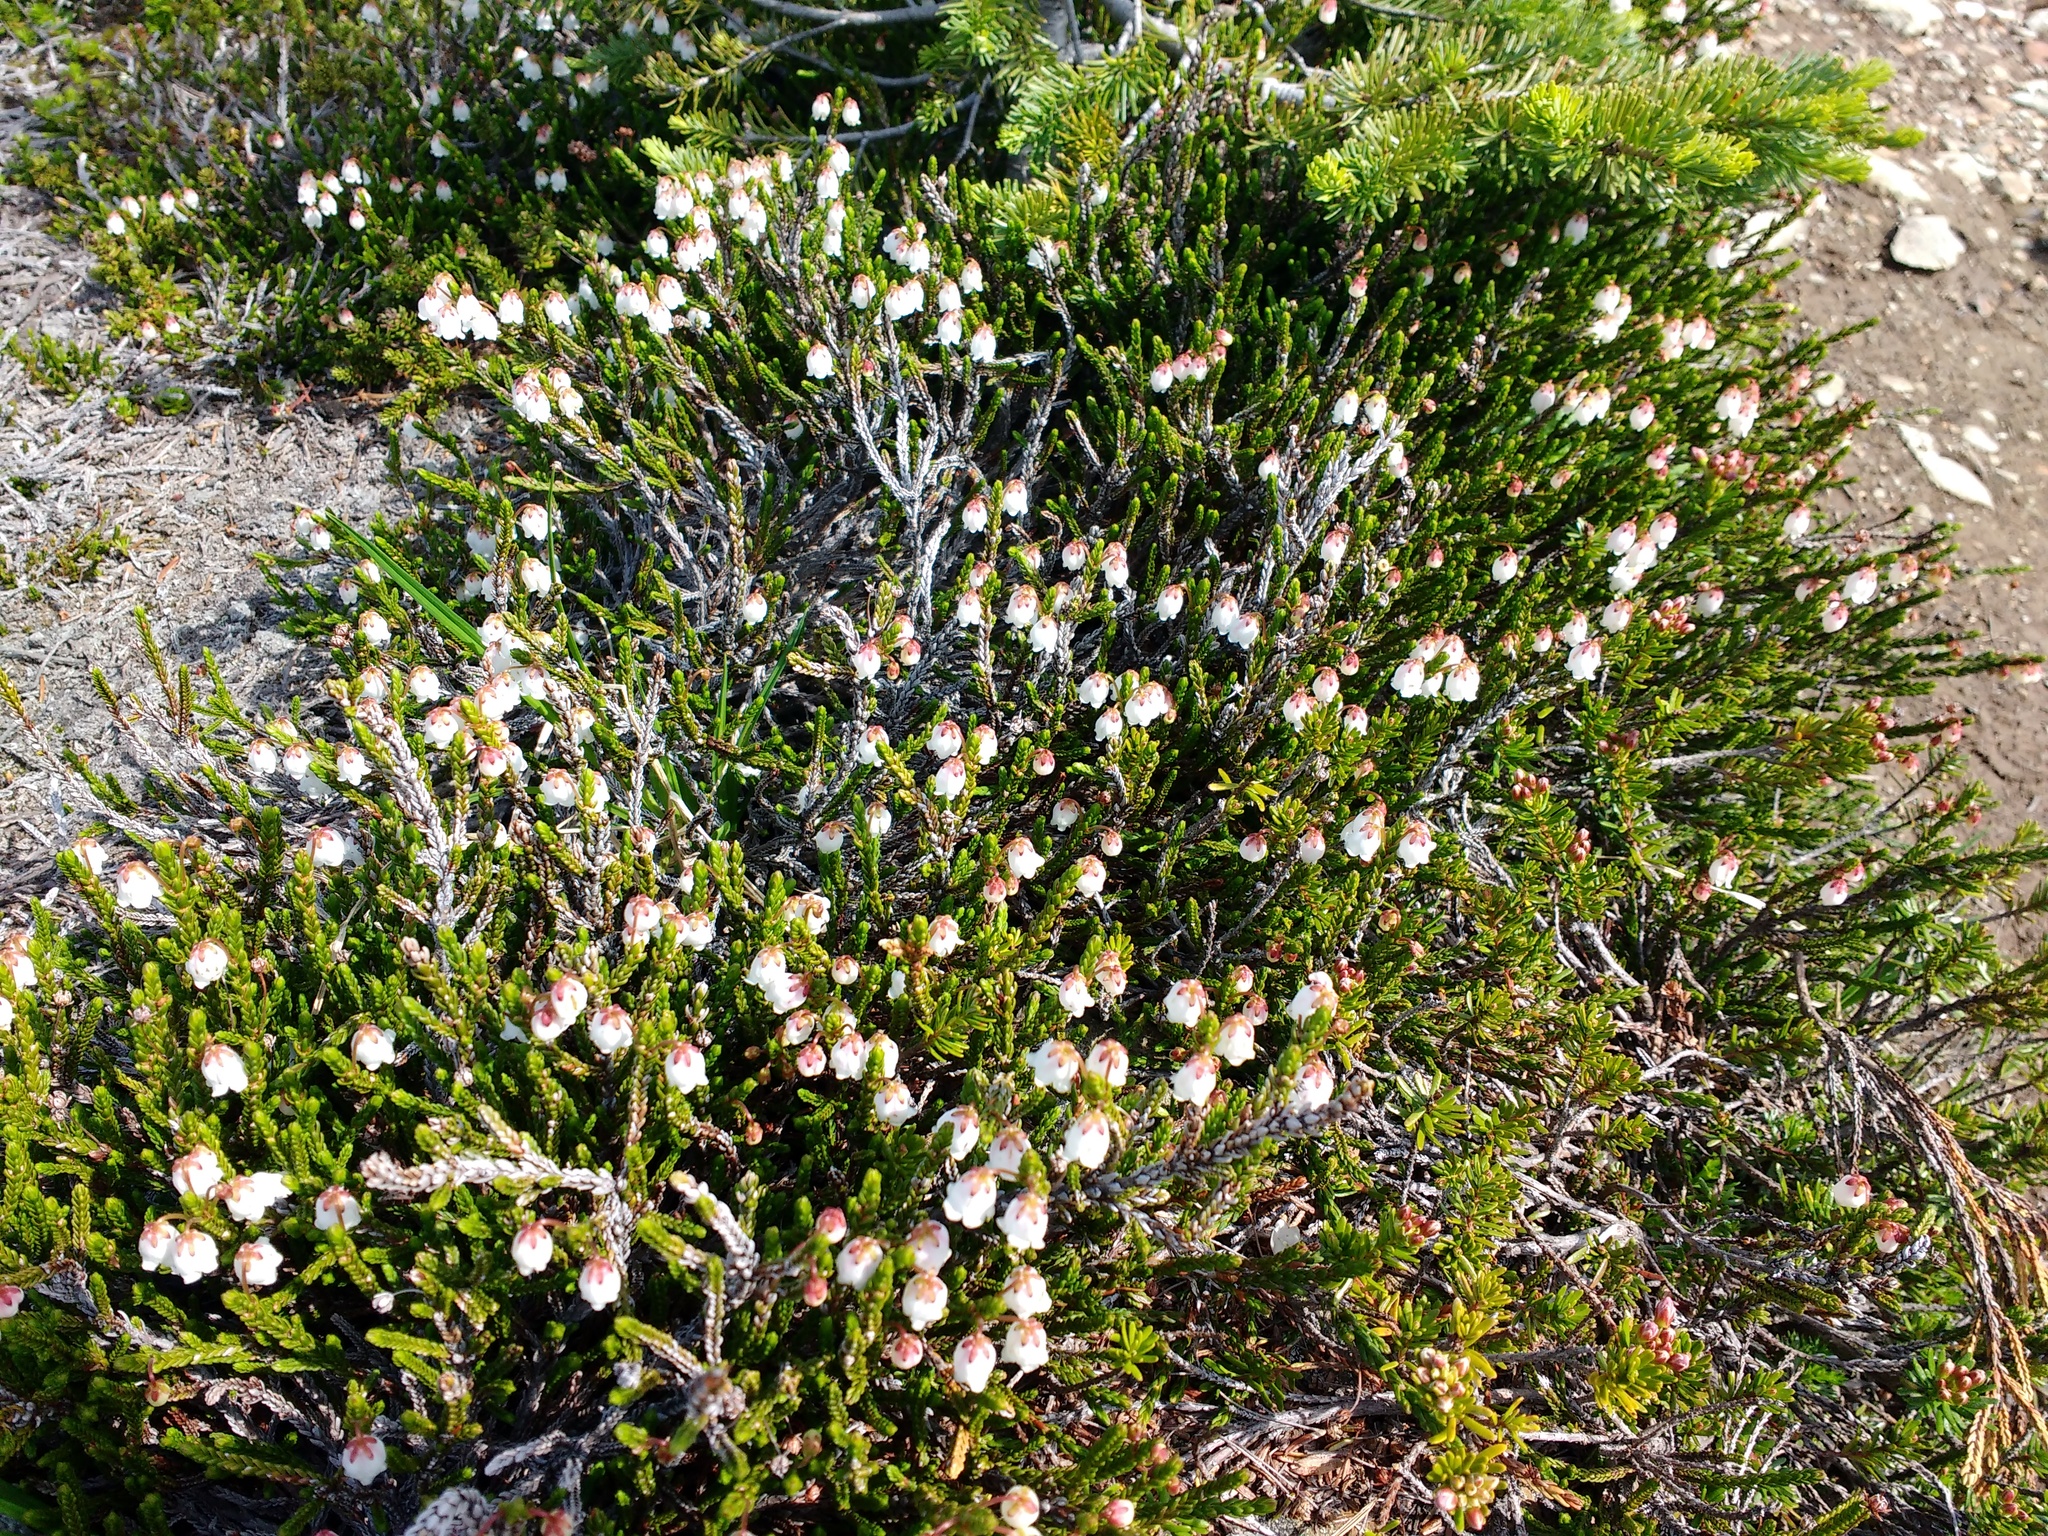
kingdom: Plantae
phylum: Tracheophyta
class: Magnoliopsida
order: Ericales
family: Ericaceae
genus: Cassiope
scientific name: Cassiope mertensiana
